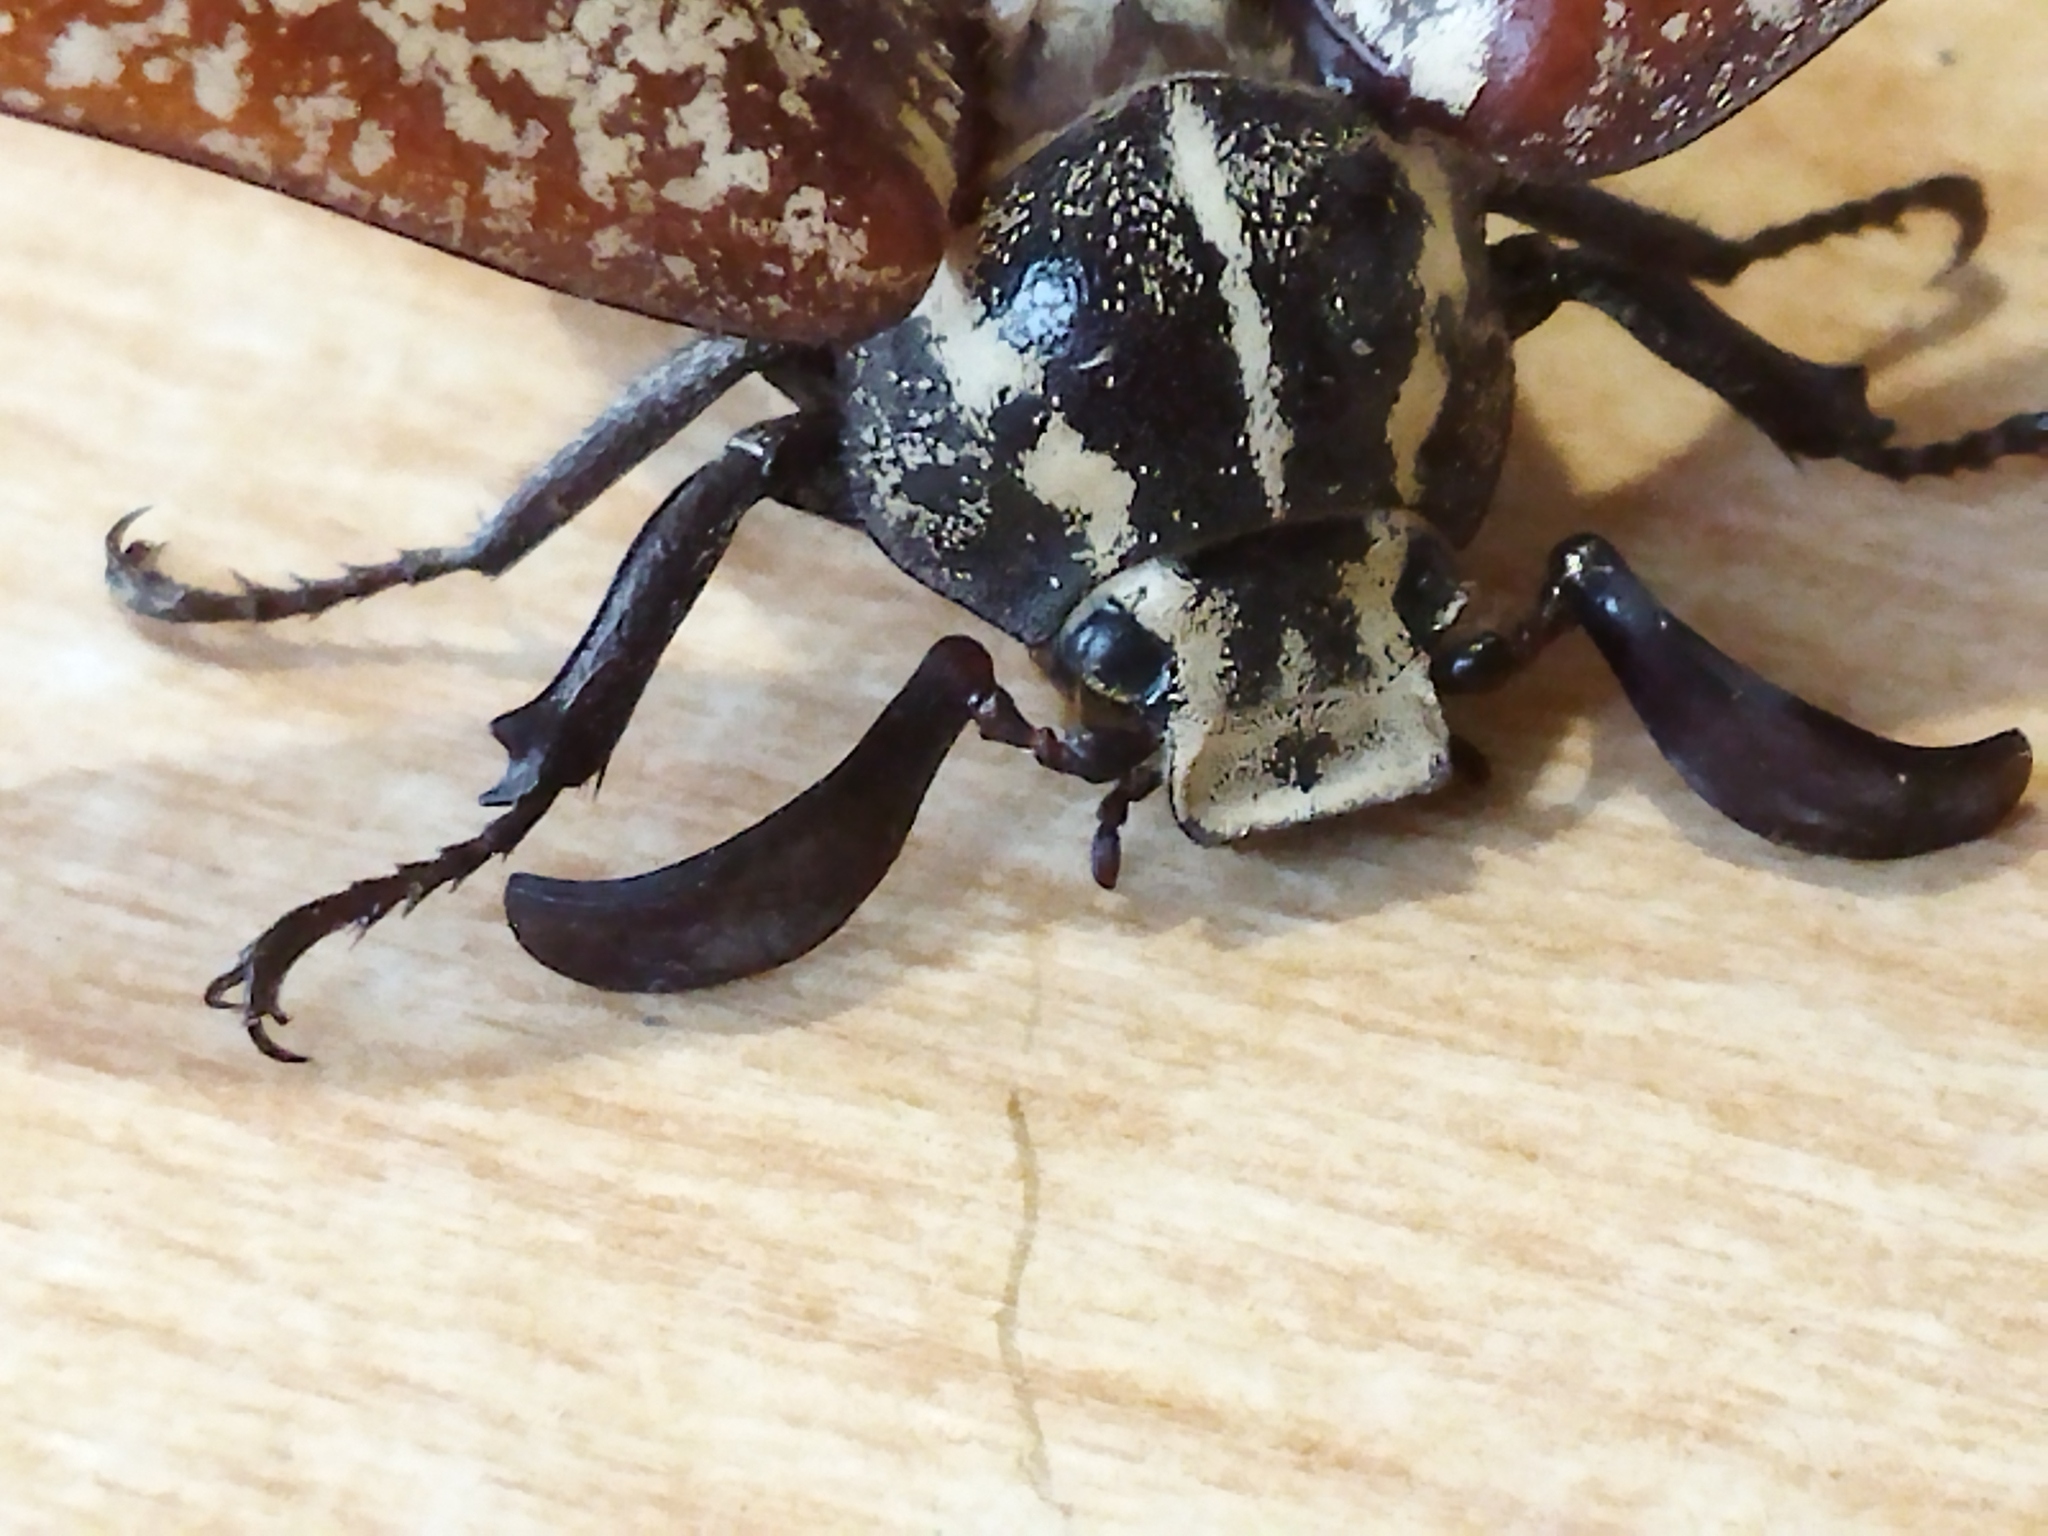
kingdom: Animalia
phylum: Arthropoda
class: Insecta
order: Coleoptera
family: Scarabaeidae
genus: Polyphylla
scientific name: Polyphylla fullo
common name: Pine chafer
